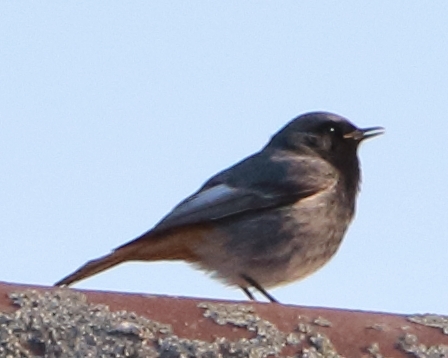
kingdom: Animalia
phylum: Chordata
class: Aves
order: Passeriformes
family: Muscicapidae
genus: Phoenicurus
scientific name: Phoenicurus ochruros
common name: Black redstart
